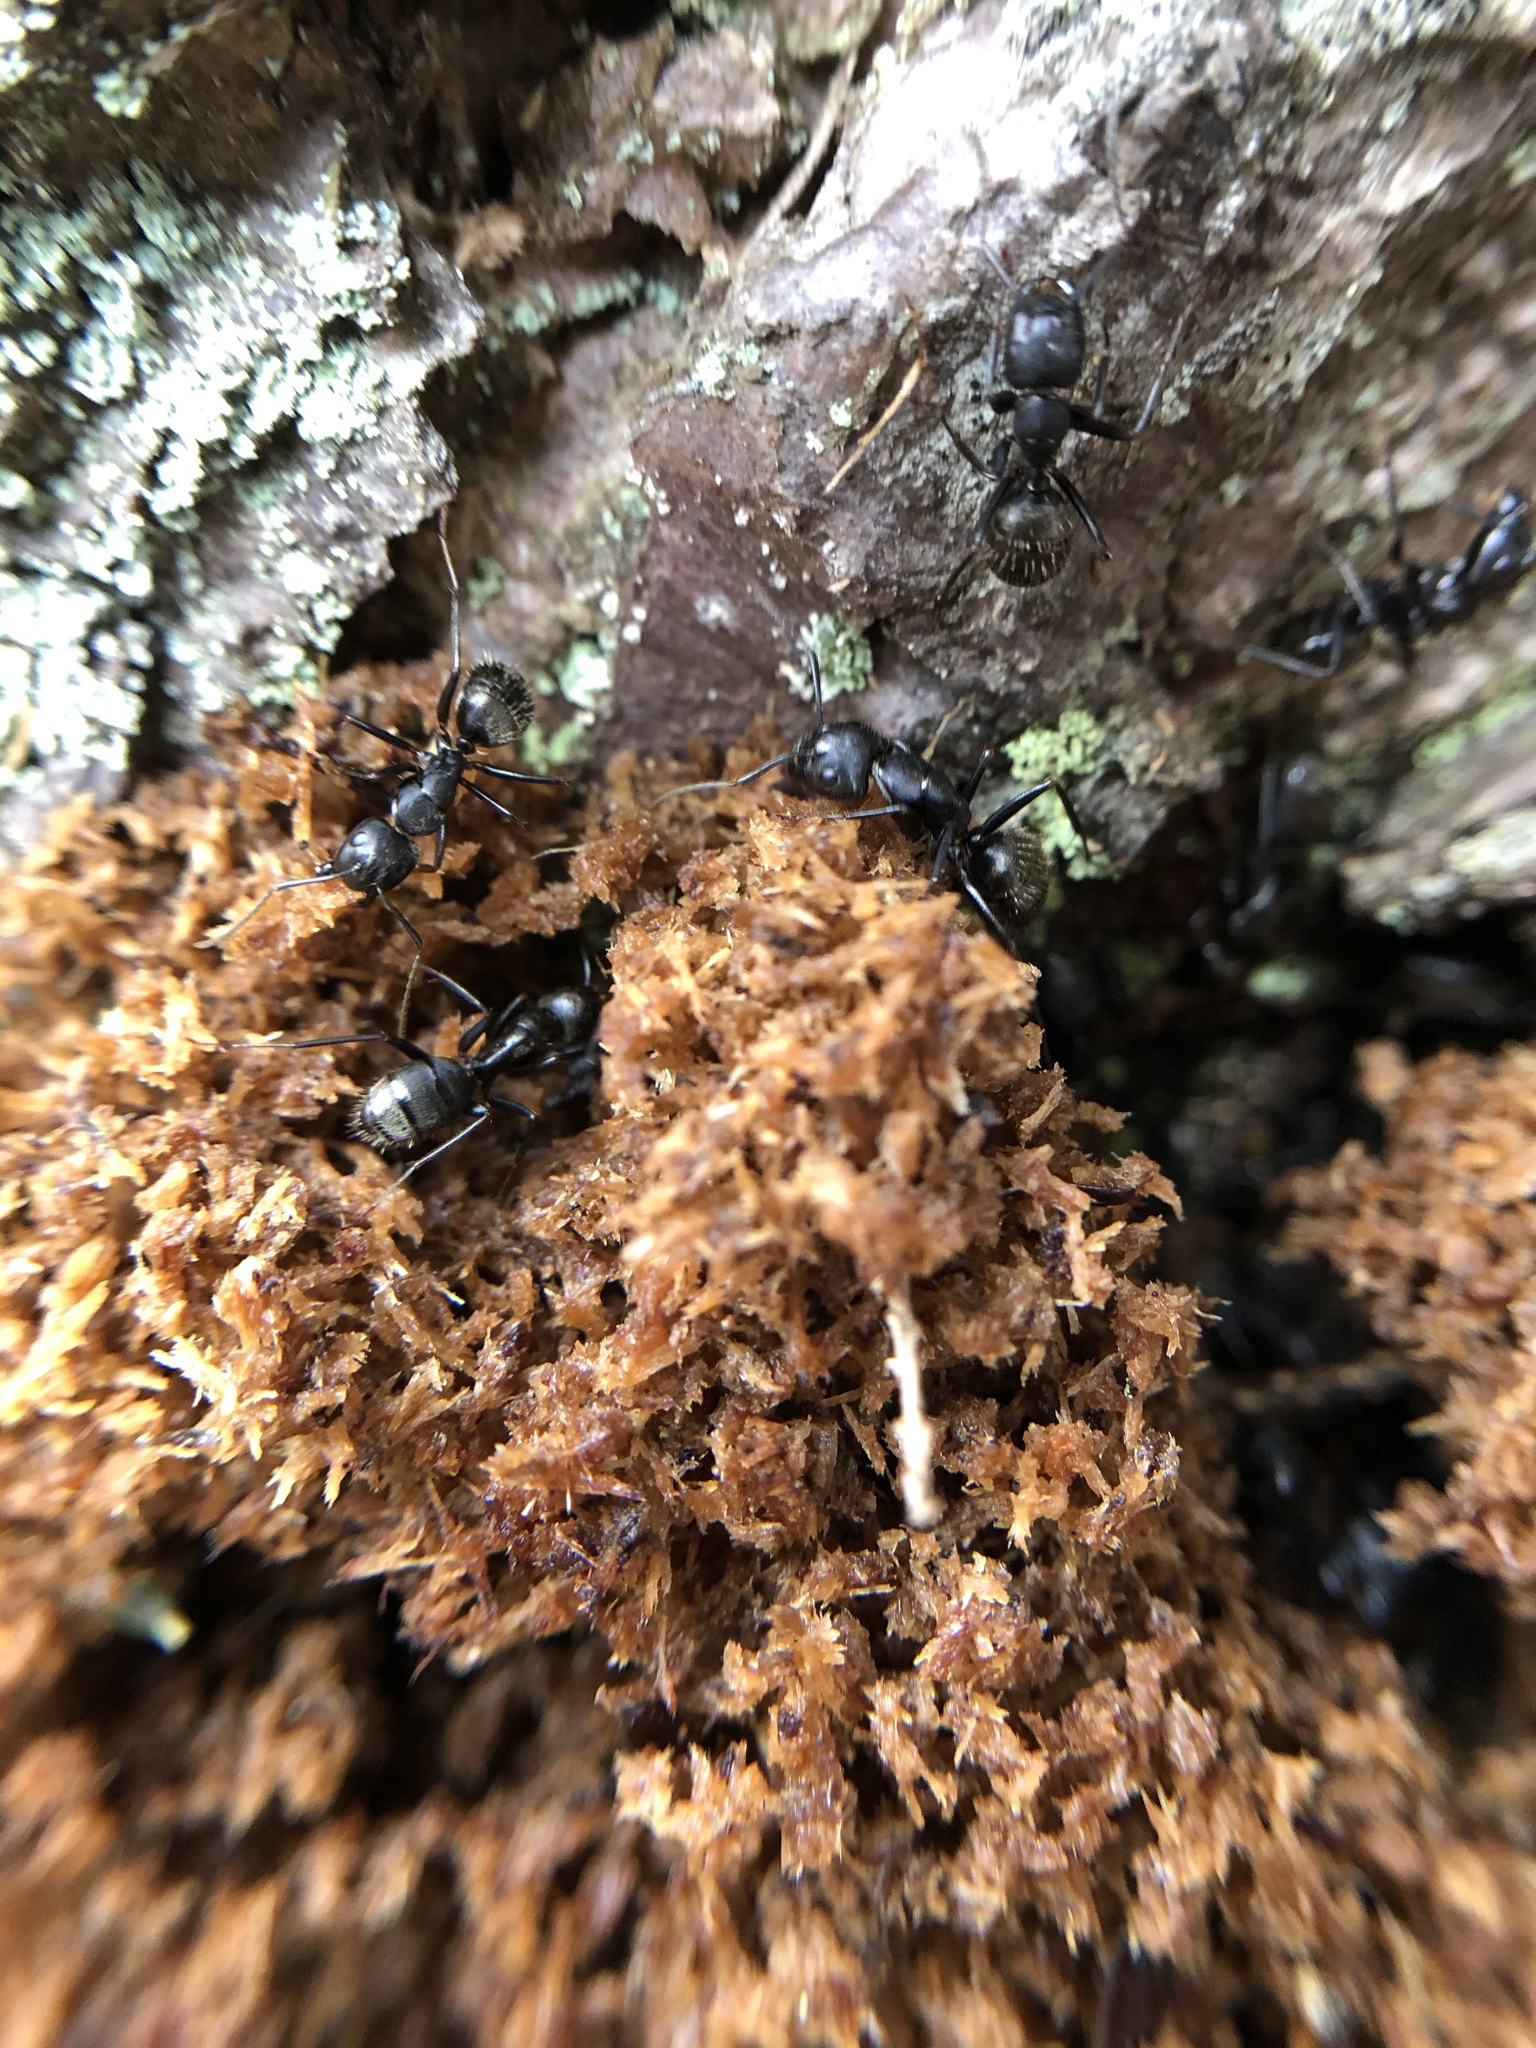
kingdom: Animalia
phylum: Arthropoda
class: Insecta
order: Hymenoptera
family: Formicidae
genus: Camponotus
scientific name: Camponotus pennsylvanicus
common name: Black carpenter ant
